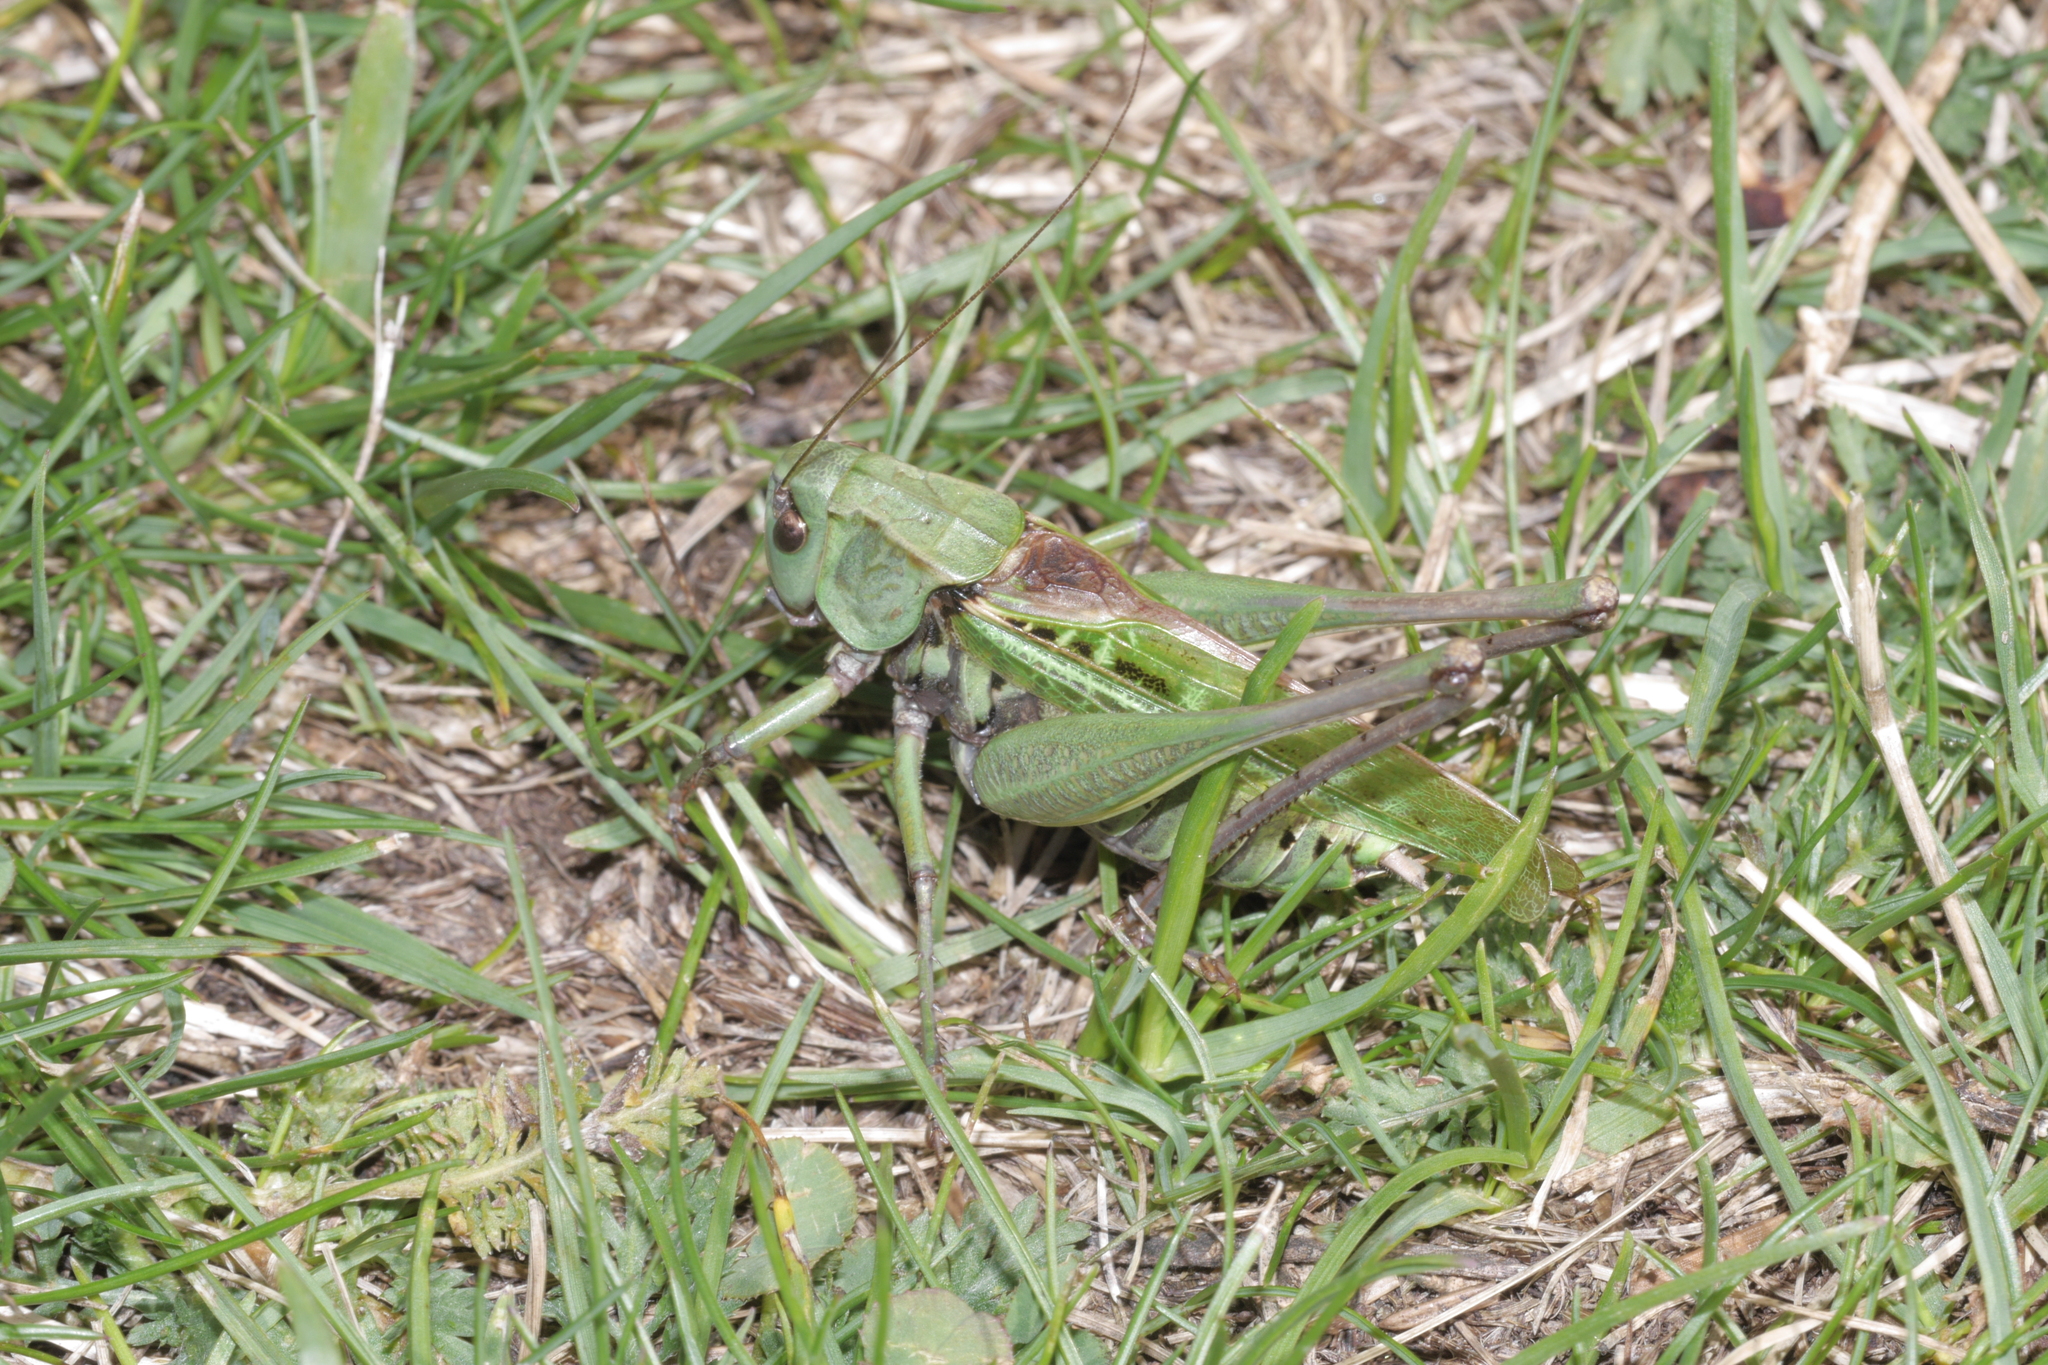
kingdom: Animalia
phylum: Arthropoda
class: Insecta
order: Orthoptera
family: Tettigoniidae
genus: Decticus
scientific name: Decticus verrucivorus
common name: Wart-biter
